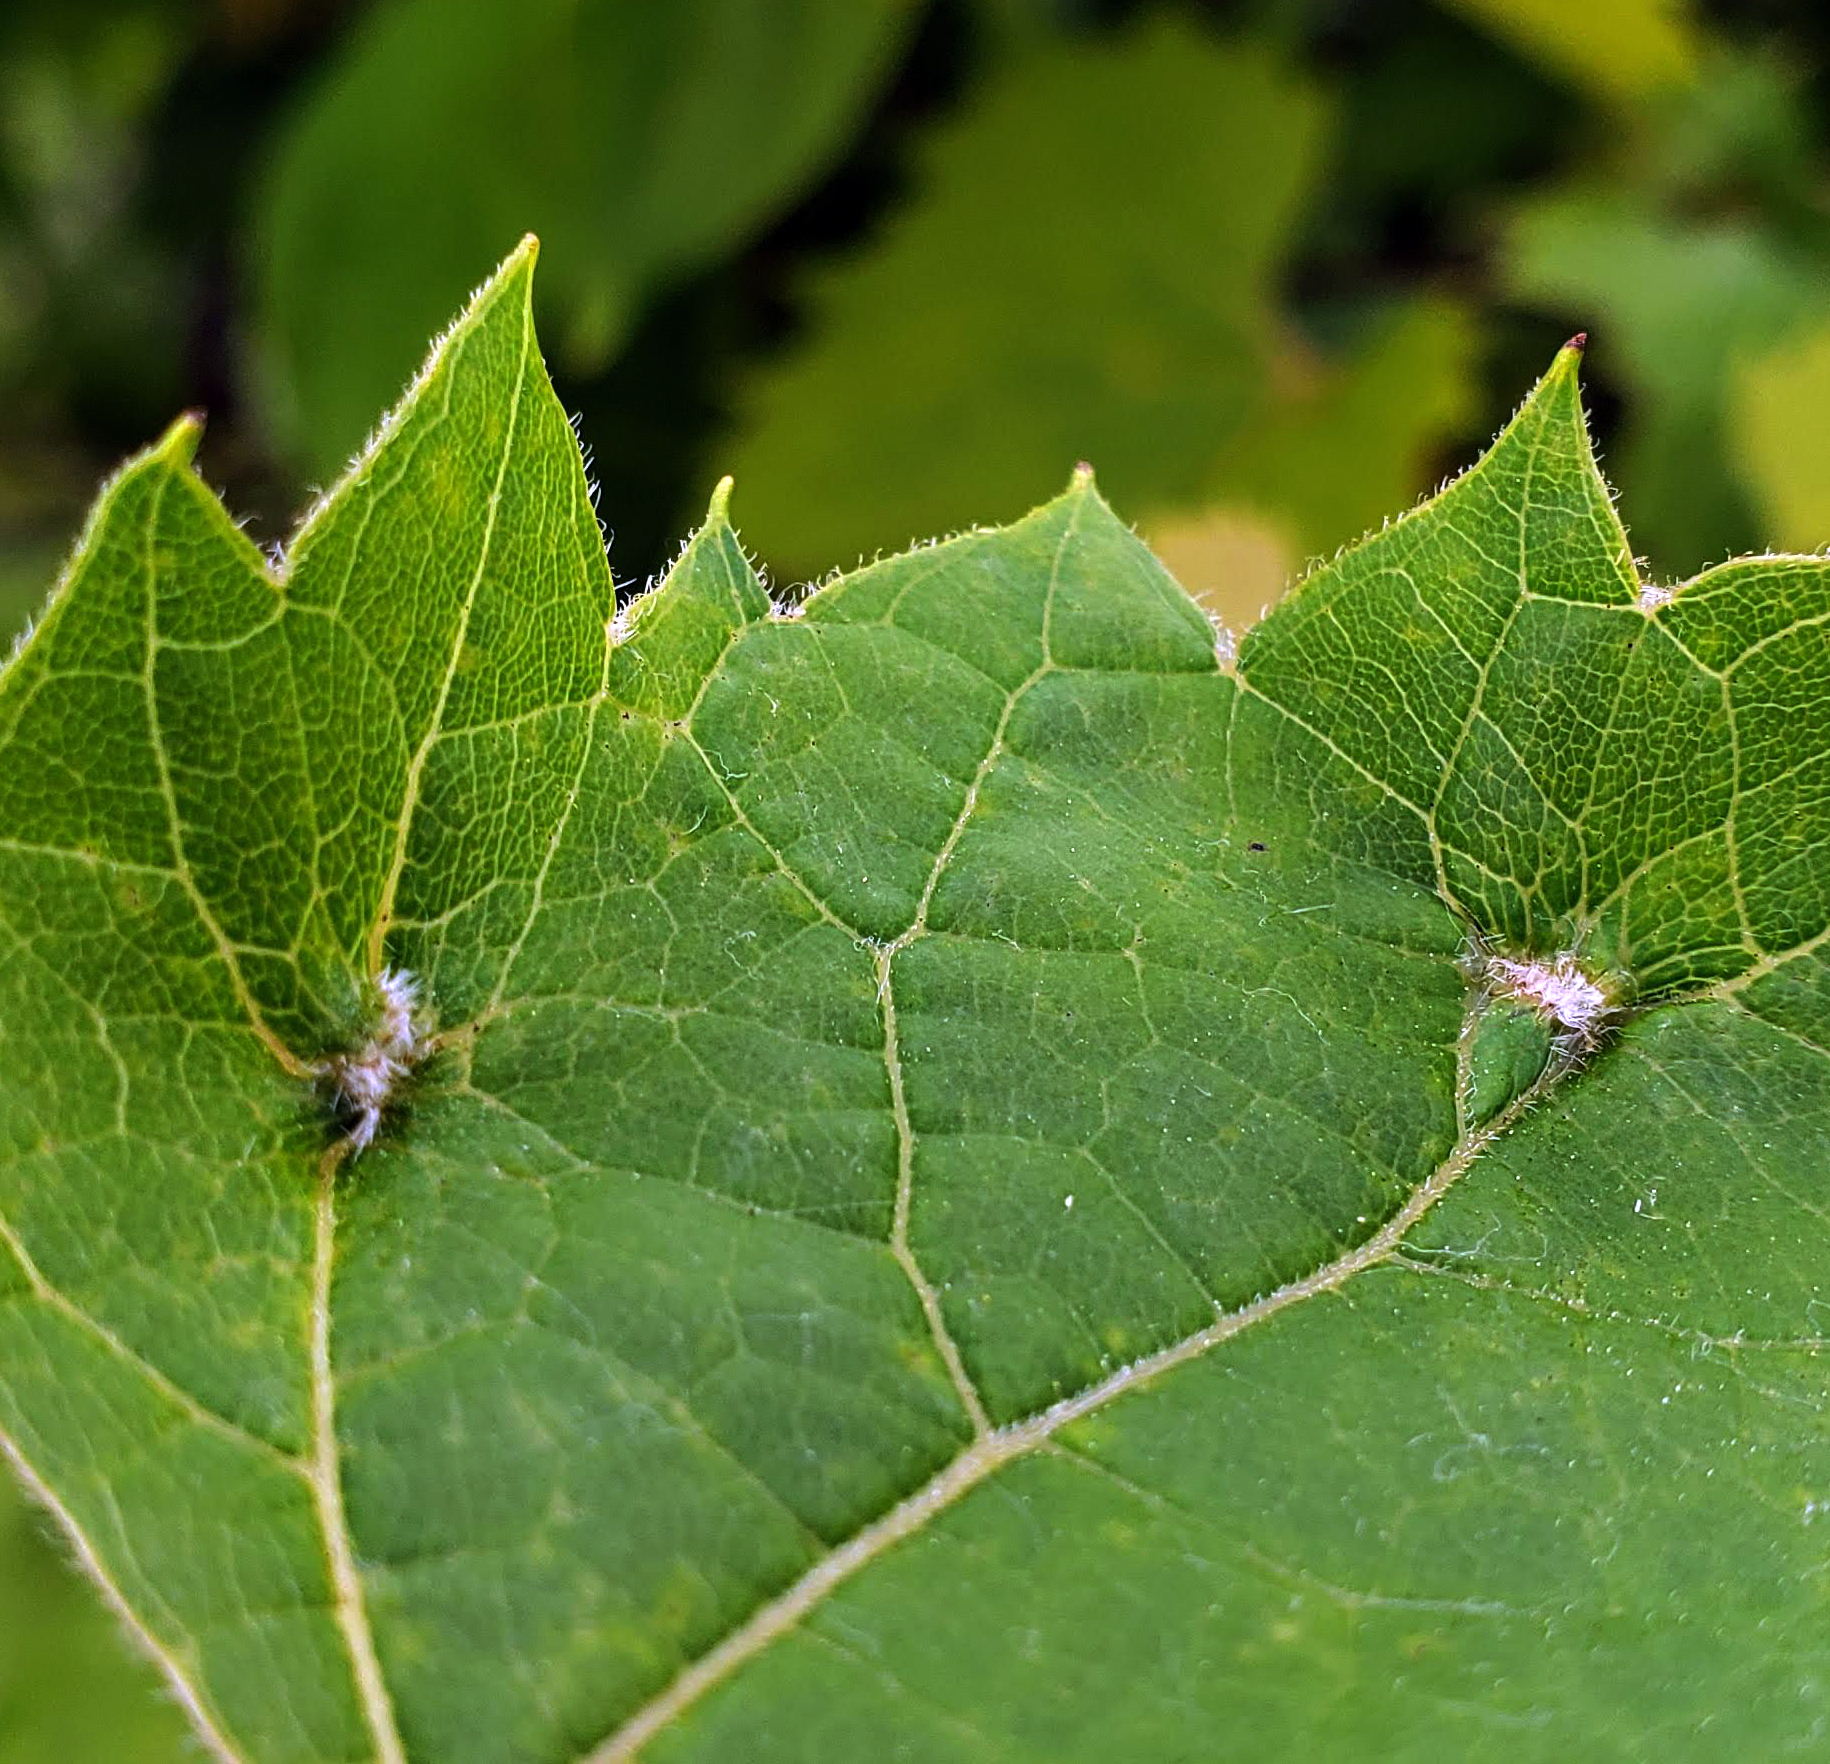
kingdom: Animalia
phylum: Arthropoda
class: Insecta
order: Hemiptera
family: Phylloxeridae
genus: Daktulosphaira
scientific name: Daktulosphaira vitifoliae
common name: Grape phylloxera
